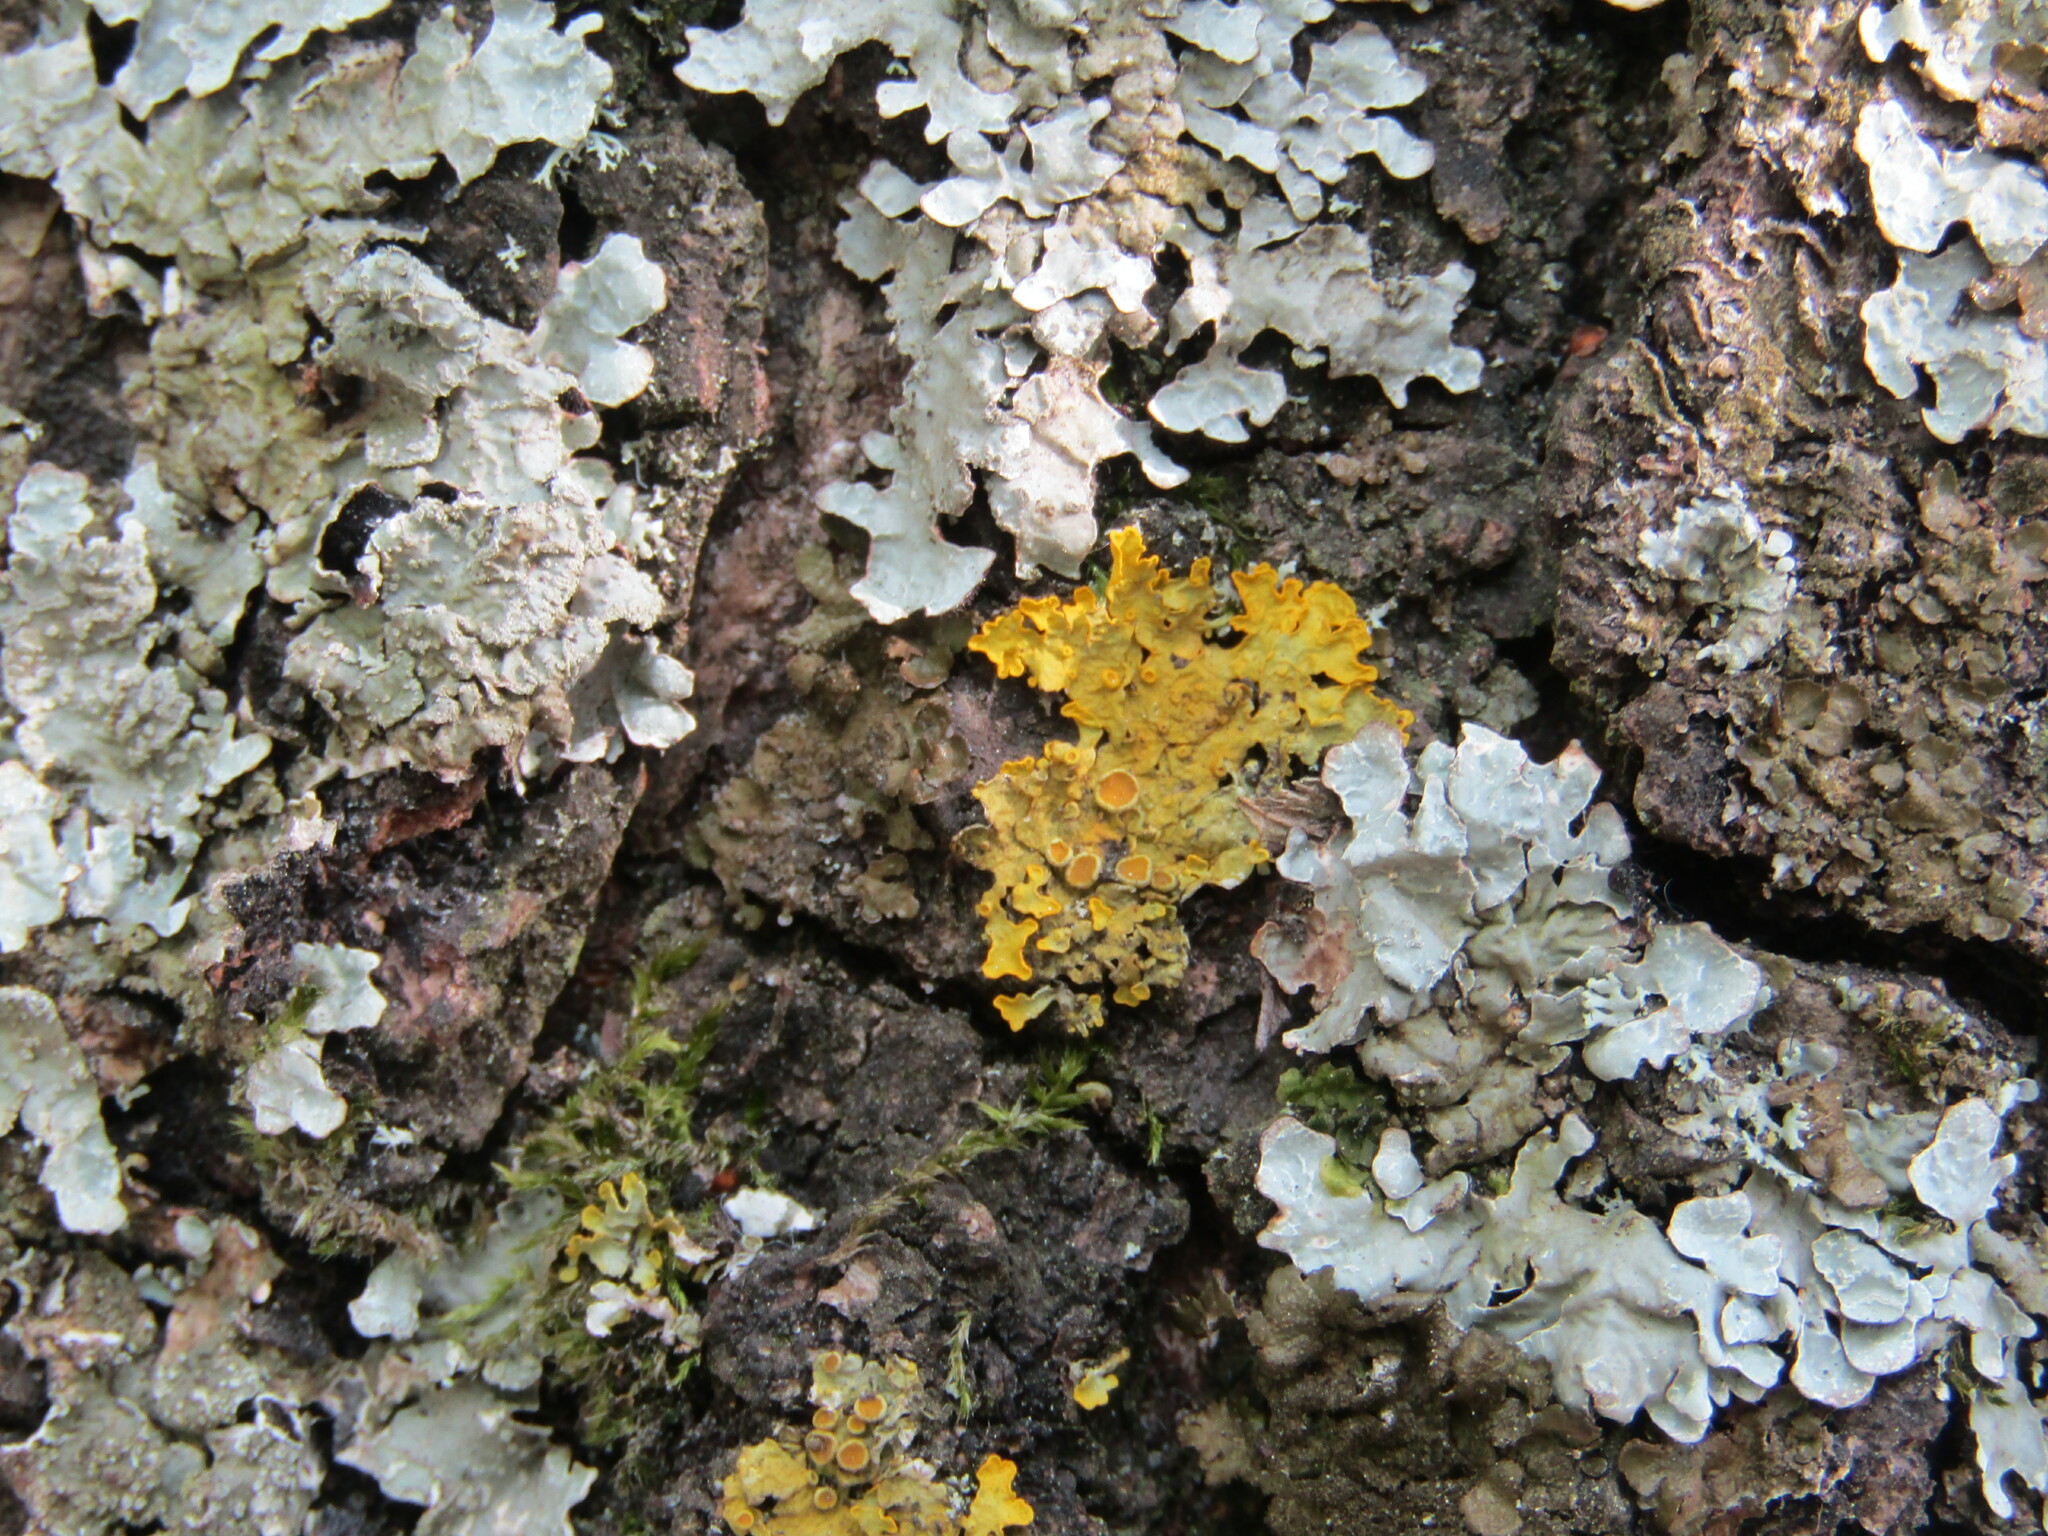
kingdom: Fungi
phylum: Ascomycota
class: Lecanoromycetes
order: Teloschistales
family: Teloschistaceae
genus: Xanthoria
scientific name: Xanthoria parietina
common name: Common orange lichen
